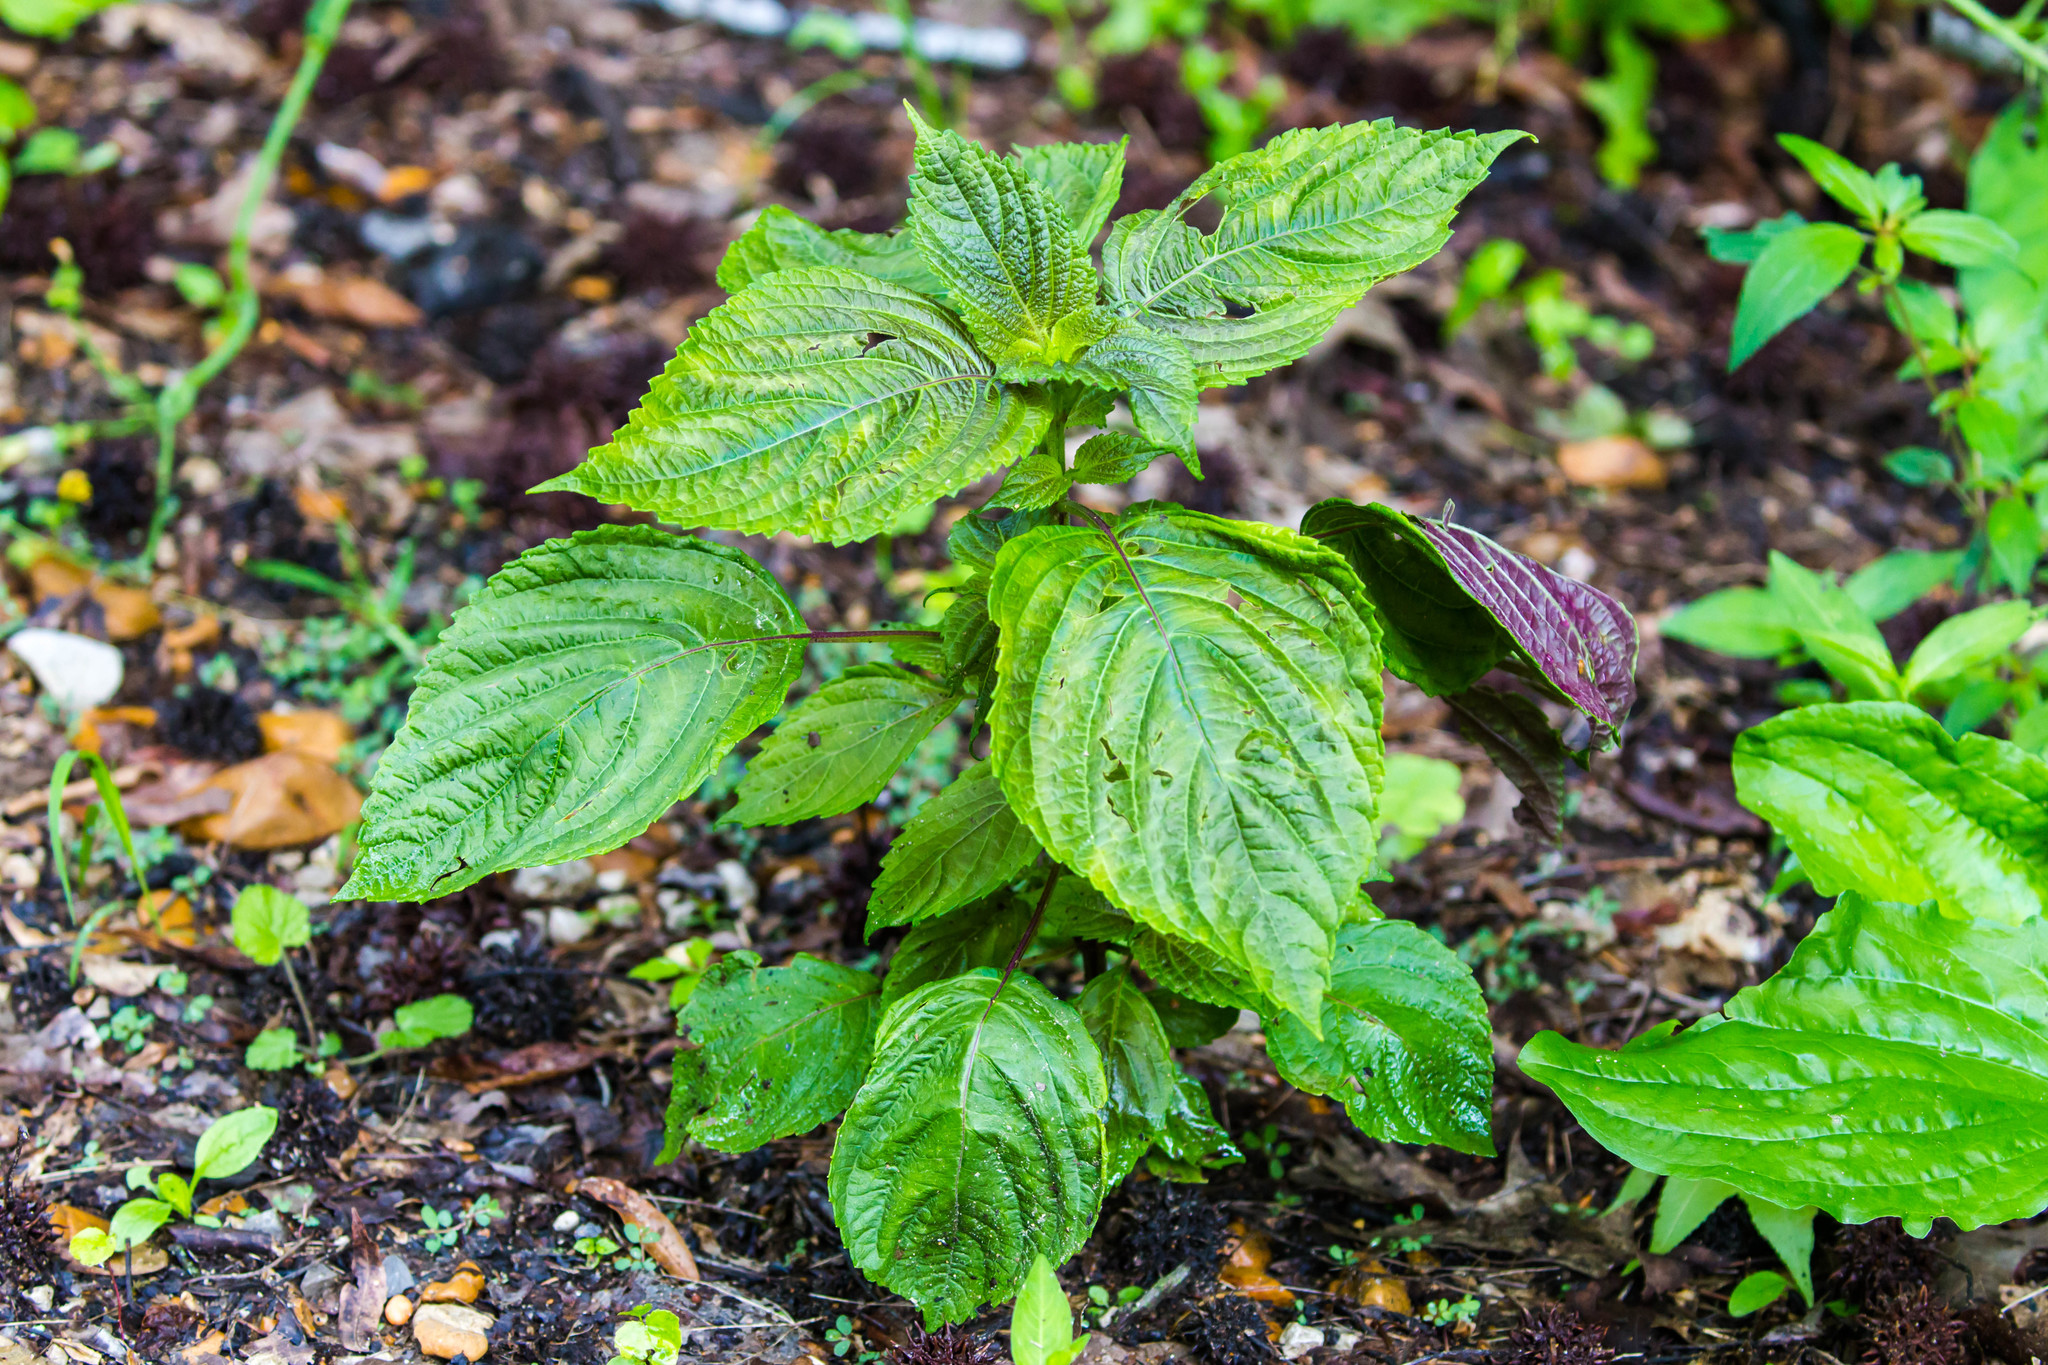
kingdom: Plantae
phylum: Tracheophyta
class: Magnoliopsida
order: Lamiales
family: Lamiaceae
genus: Perilla
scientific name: Perilla frutescens
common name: Perilla
